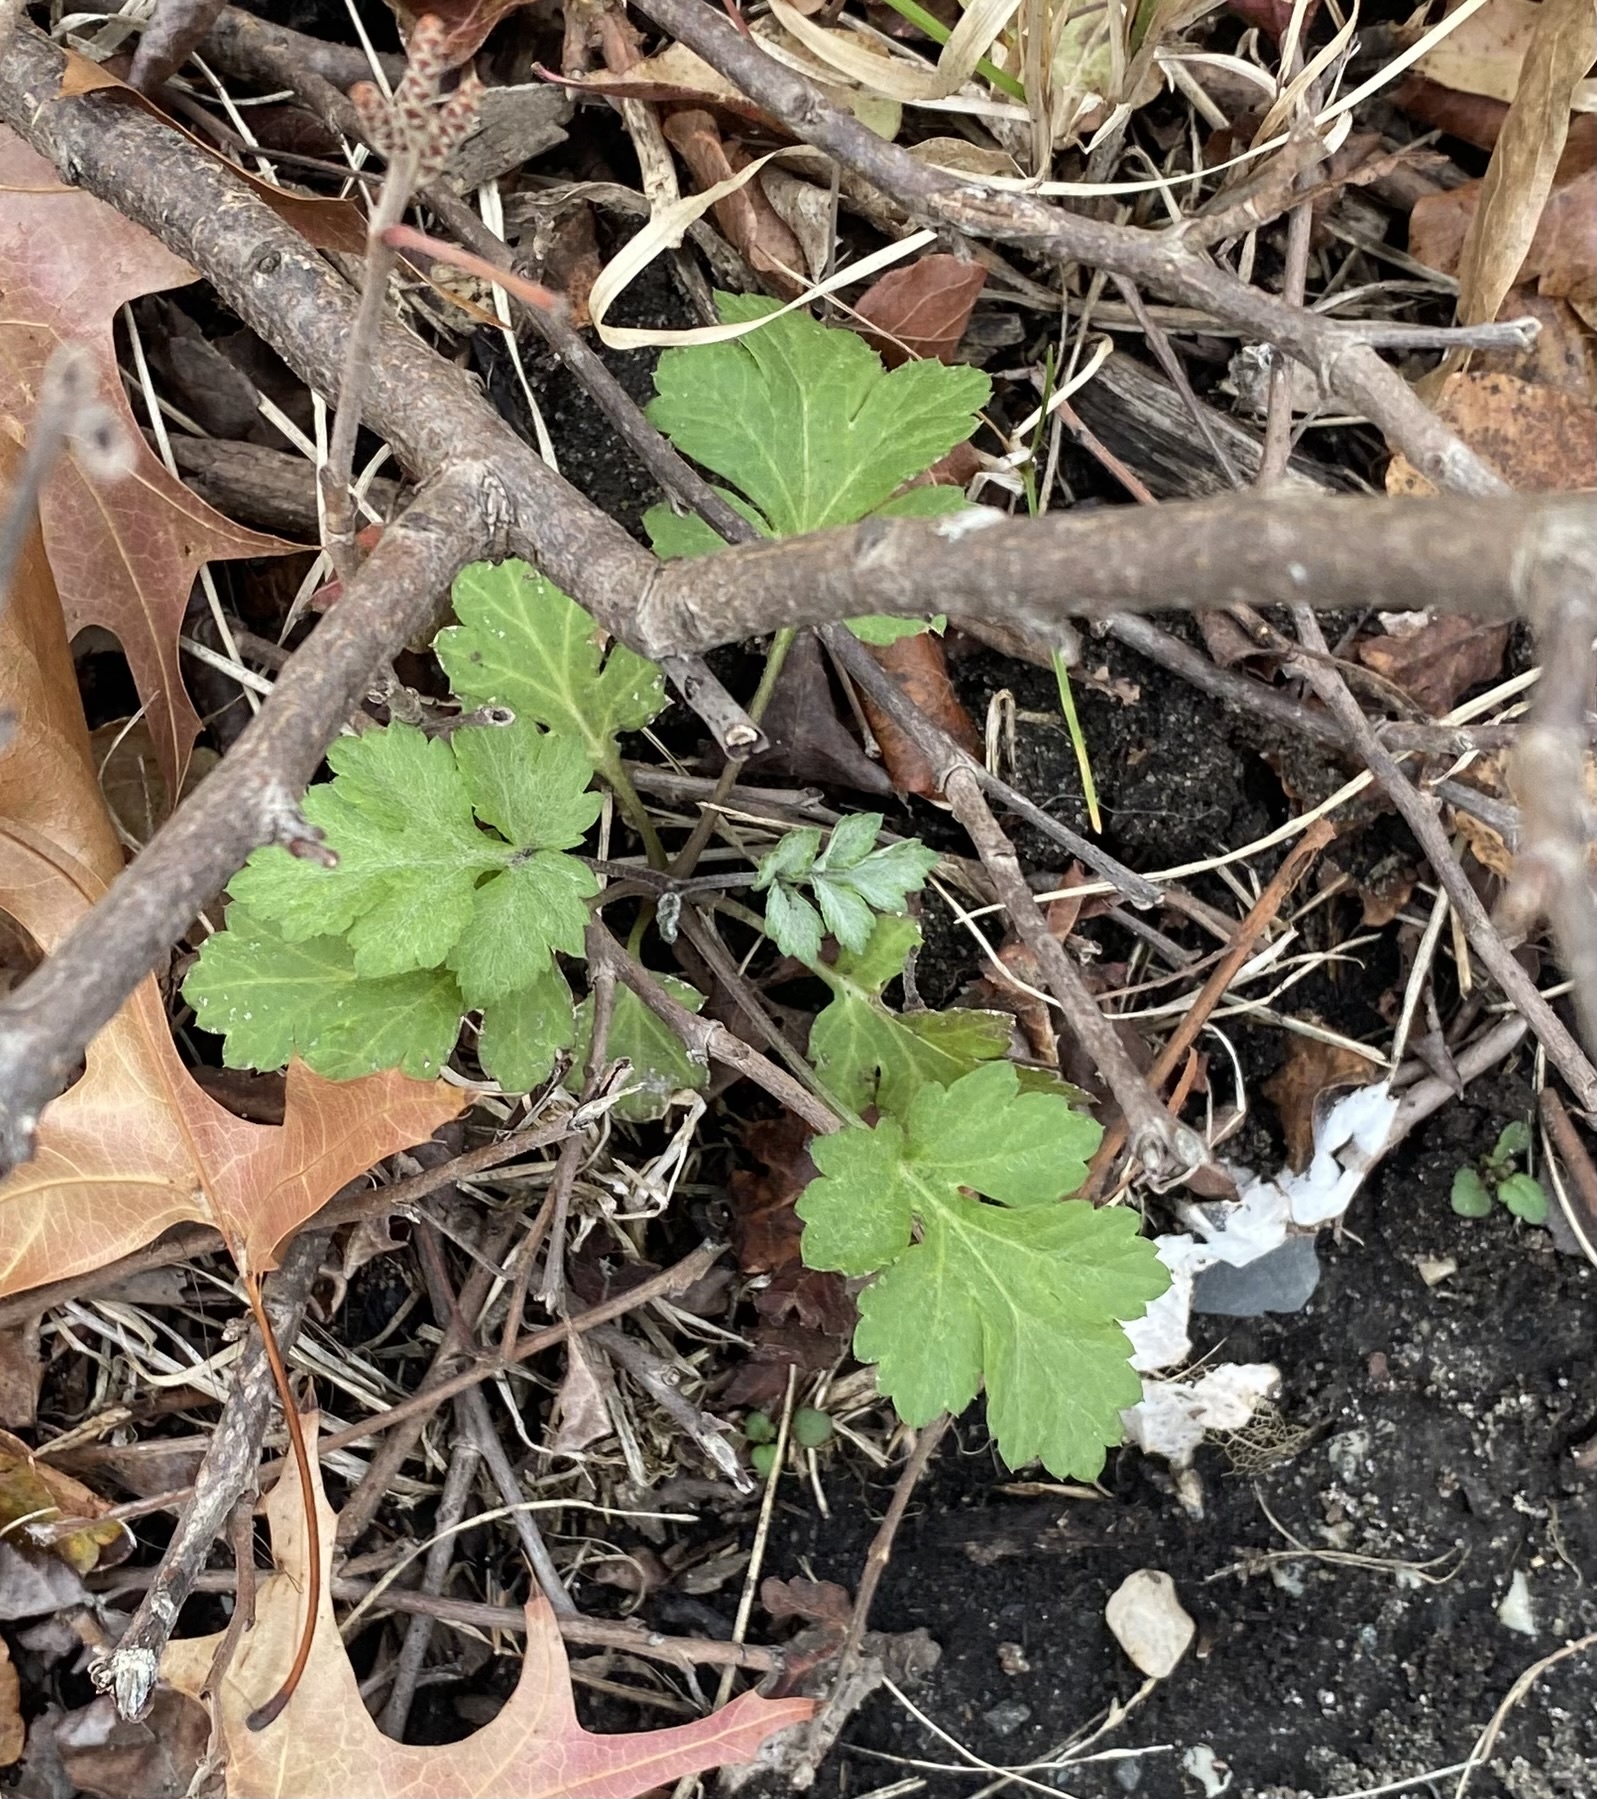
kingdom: Plantae
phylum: Tracheophyta
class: Magnoliopsida
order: Asterales
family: Asteraceae
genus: Artemisia
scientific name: Artemisia vulgaris
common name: Mugwort
